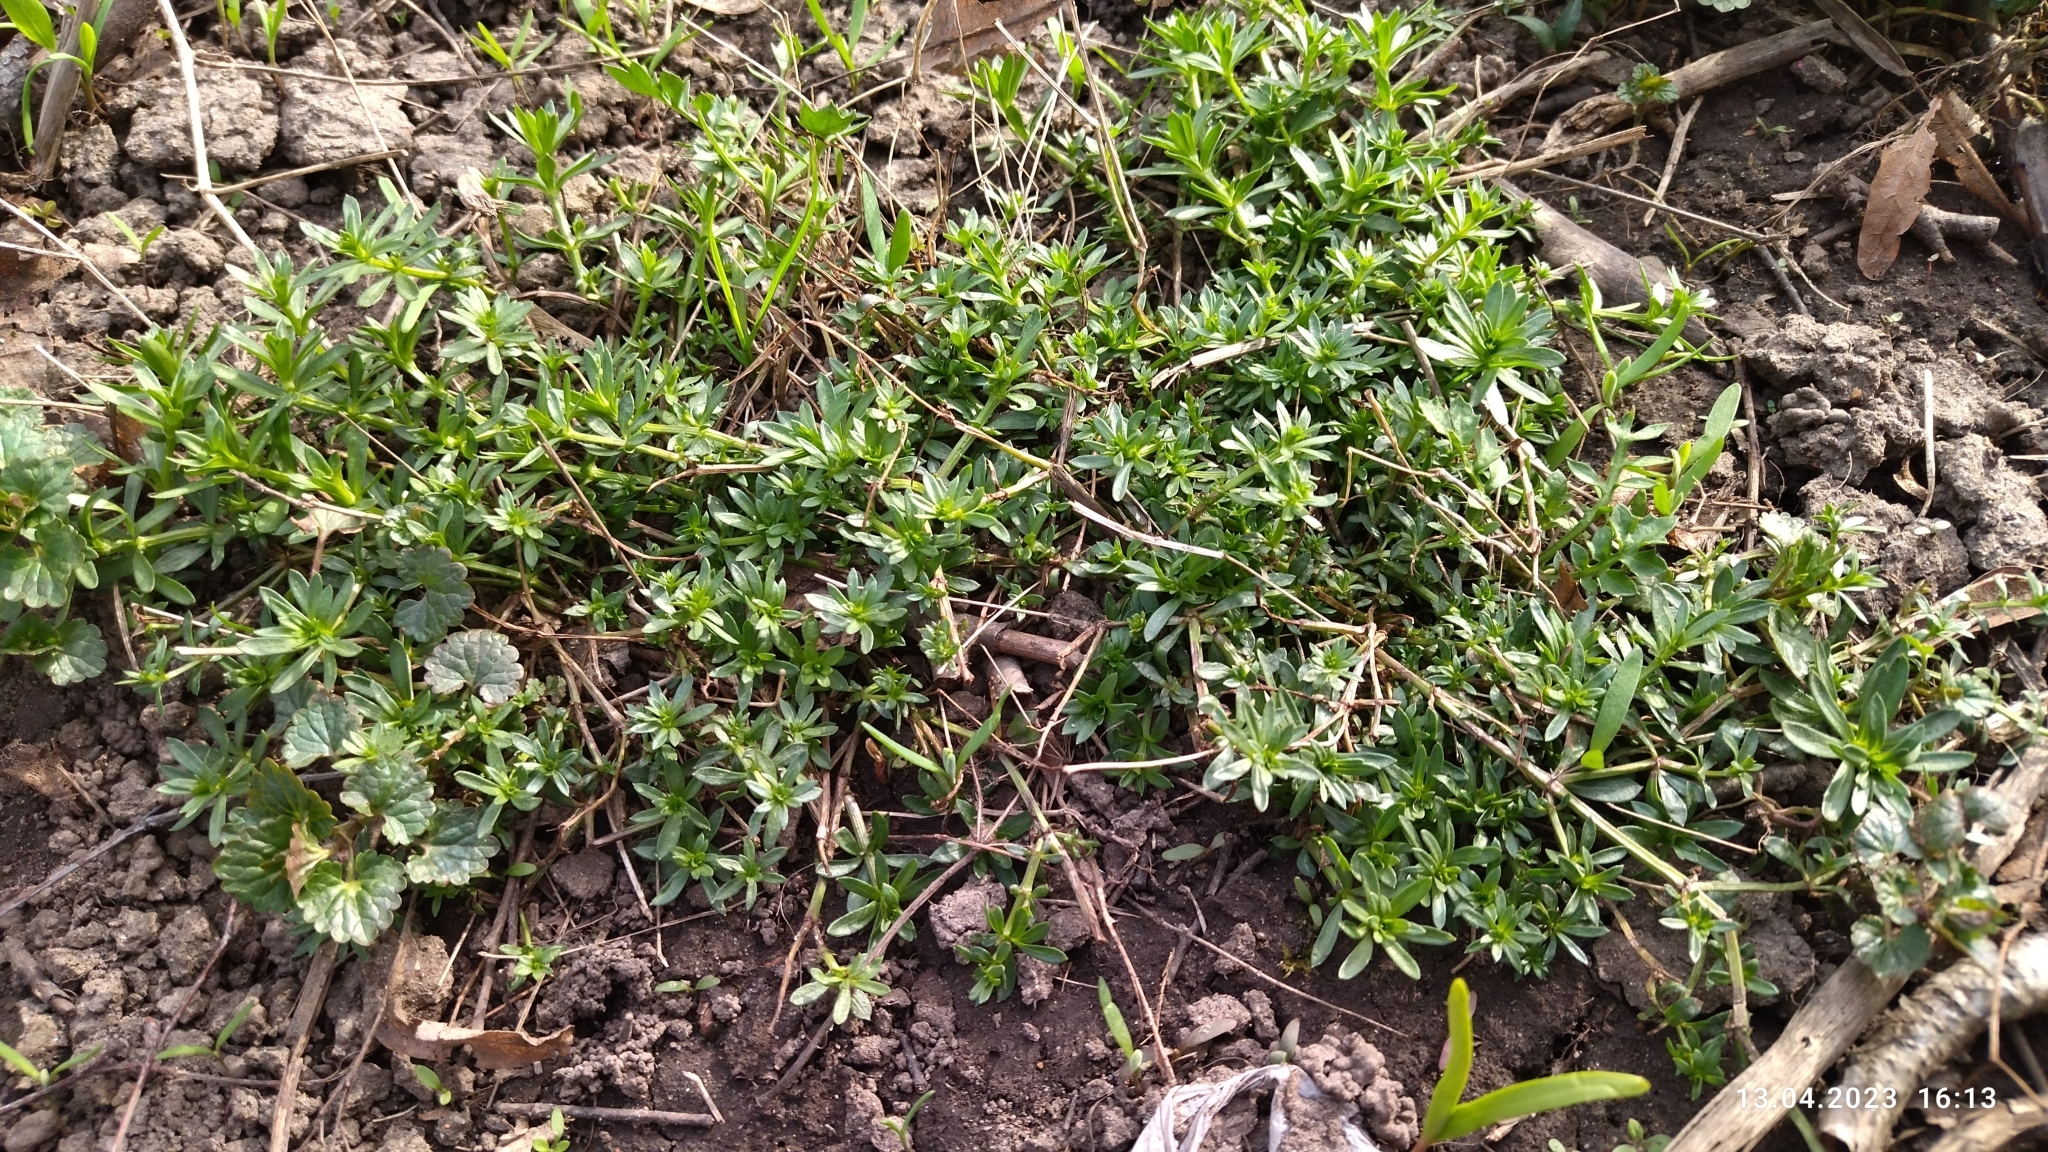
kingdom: Plantae
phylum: Tracheophyta
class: Magnoliopsida
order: Gentianales
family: Rubiaceae
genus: Galium
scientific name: Galium mollugo
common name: Hedge bedstraw
